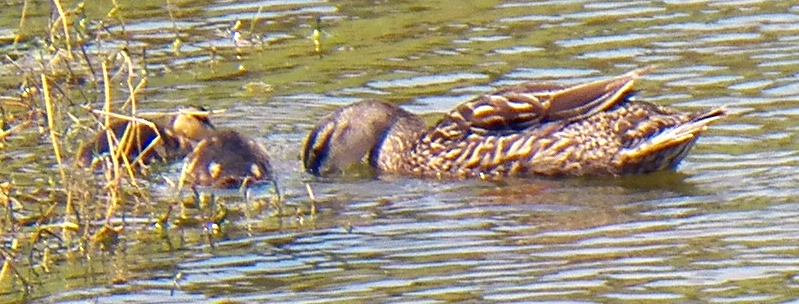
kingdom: Animalia
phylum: Chordata
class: Aves
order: Anseriformes
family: Anatidae
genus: Anas
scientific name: Anas platyrhynchos
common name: Mallard
